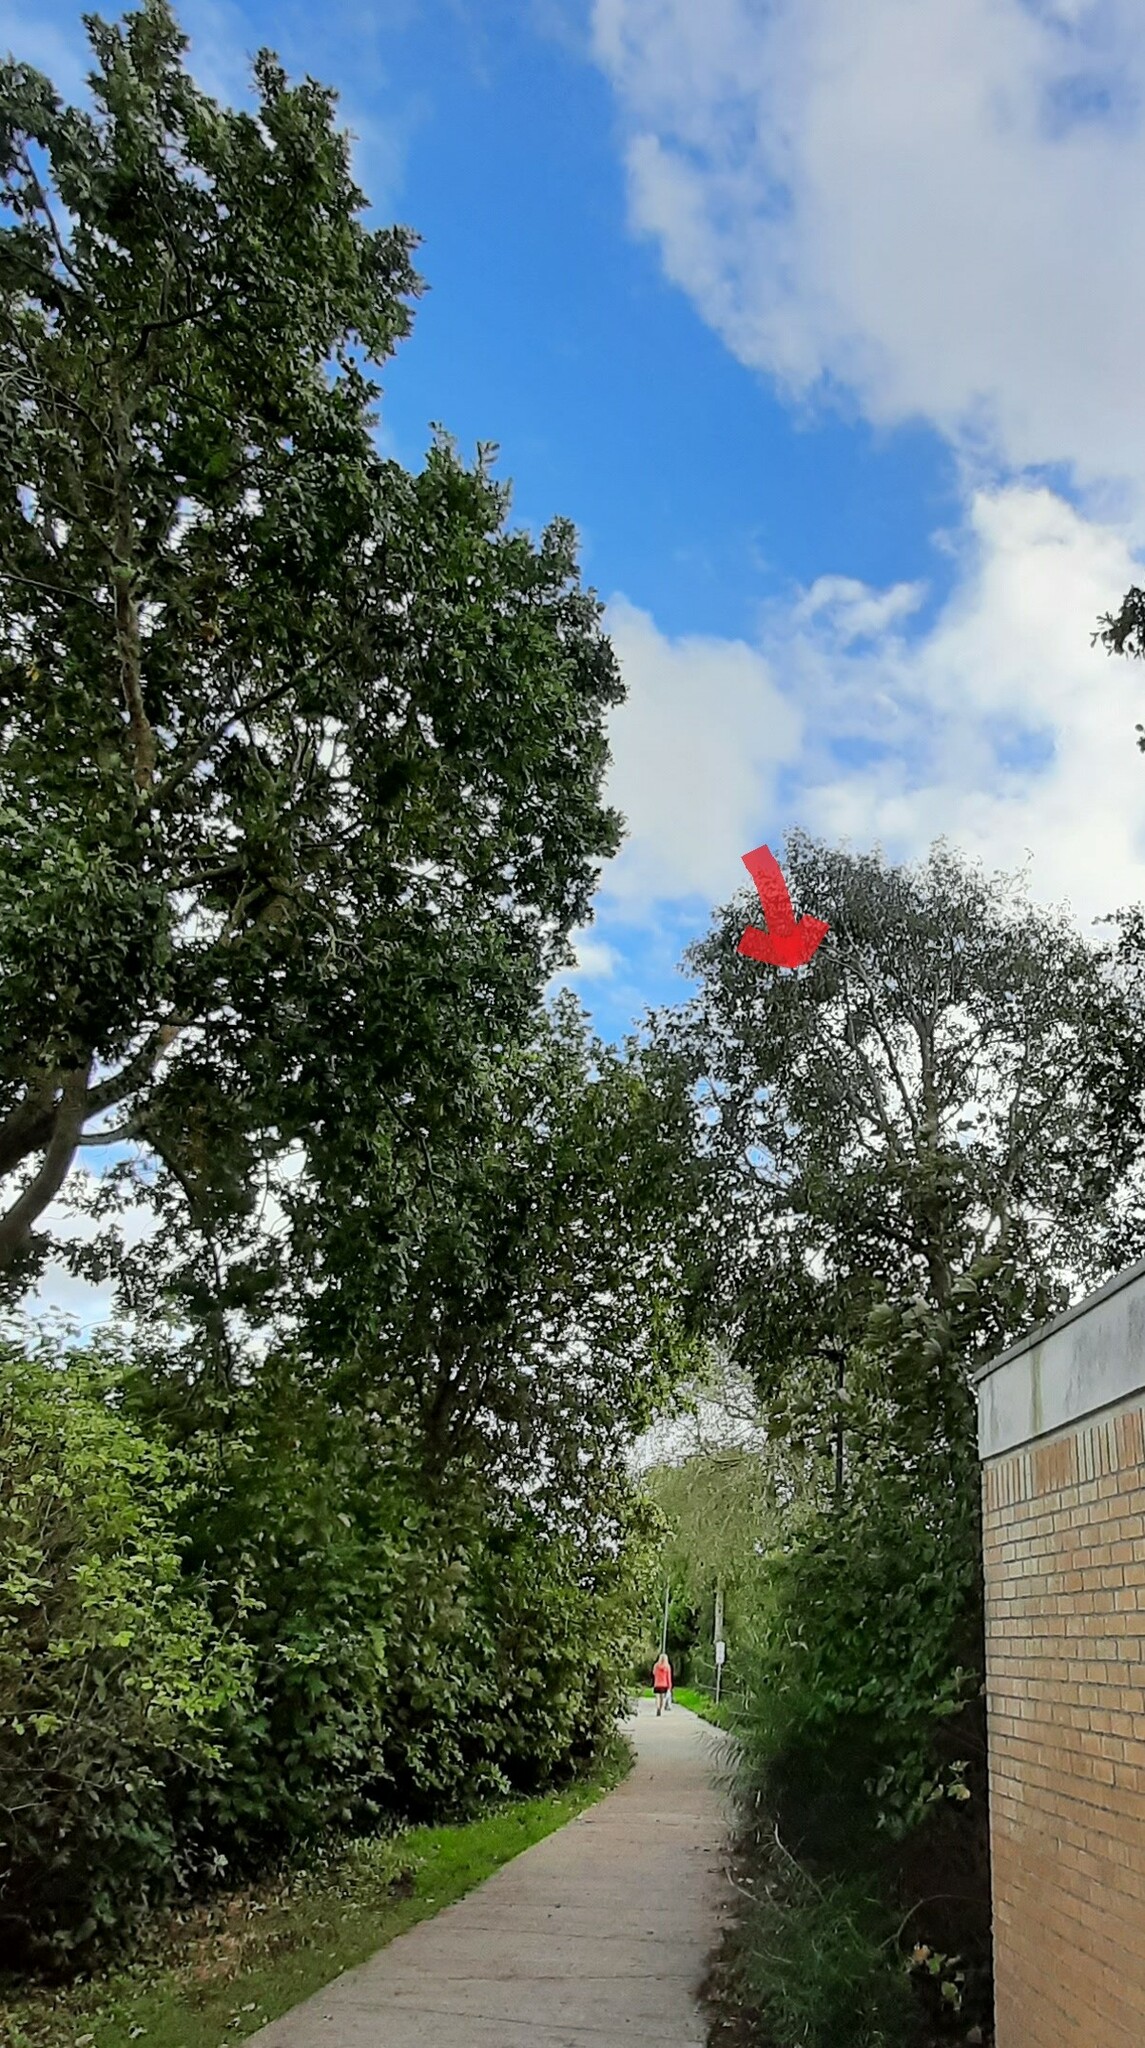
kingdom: Animalia
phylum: Arthropoda
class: Insecta
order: Hymenoptera
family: Vespidae
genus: Vespa
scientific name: Vespa velutina
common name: Asian hornet
